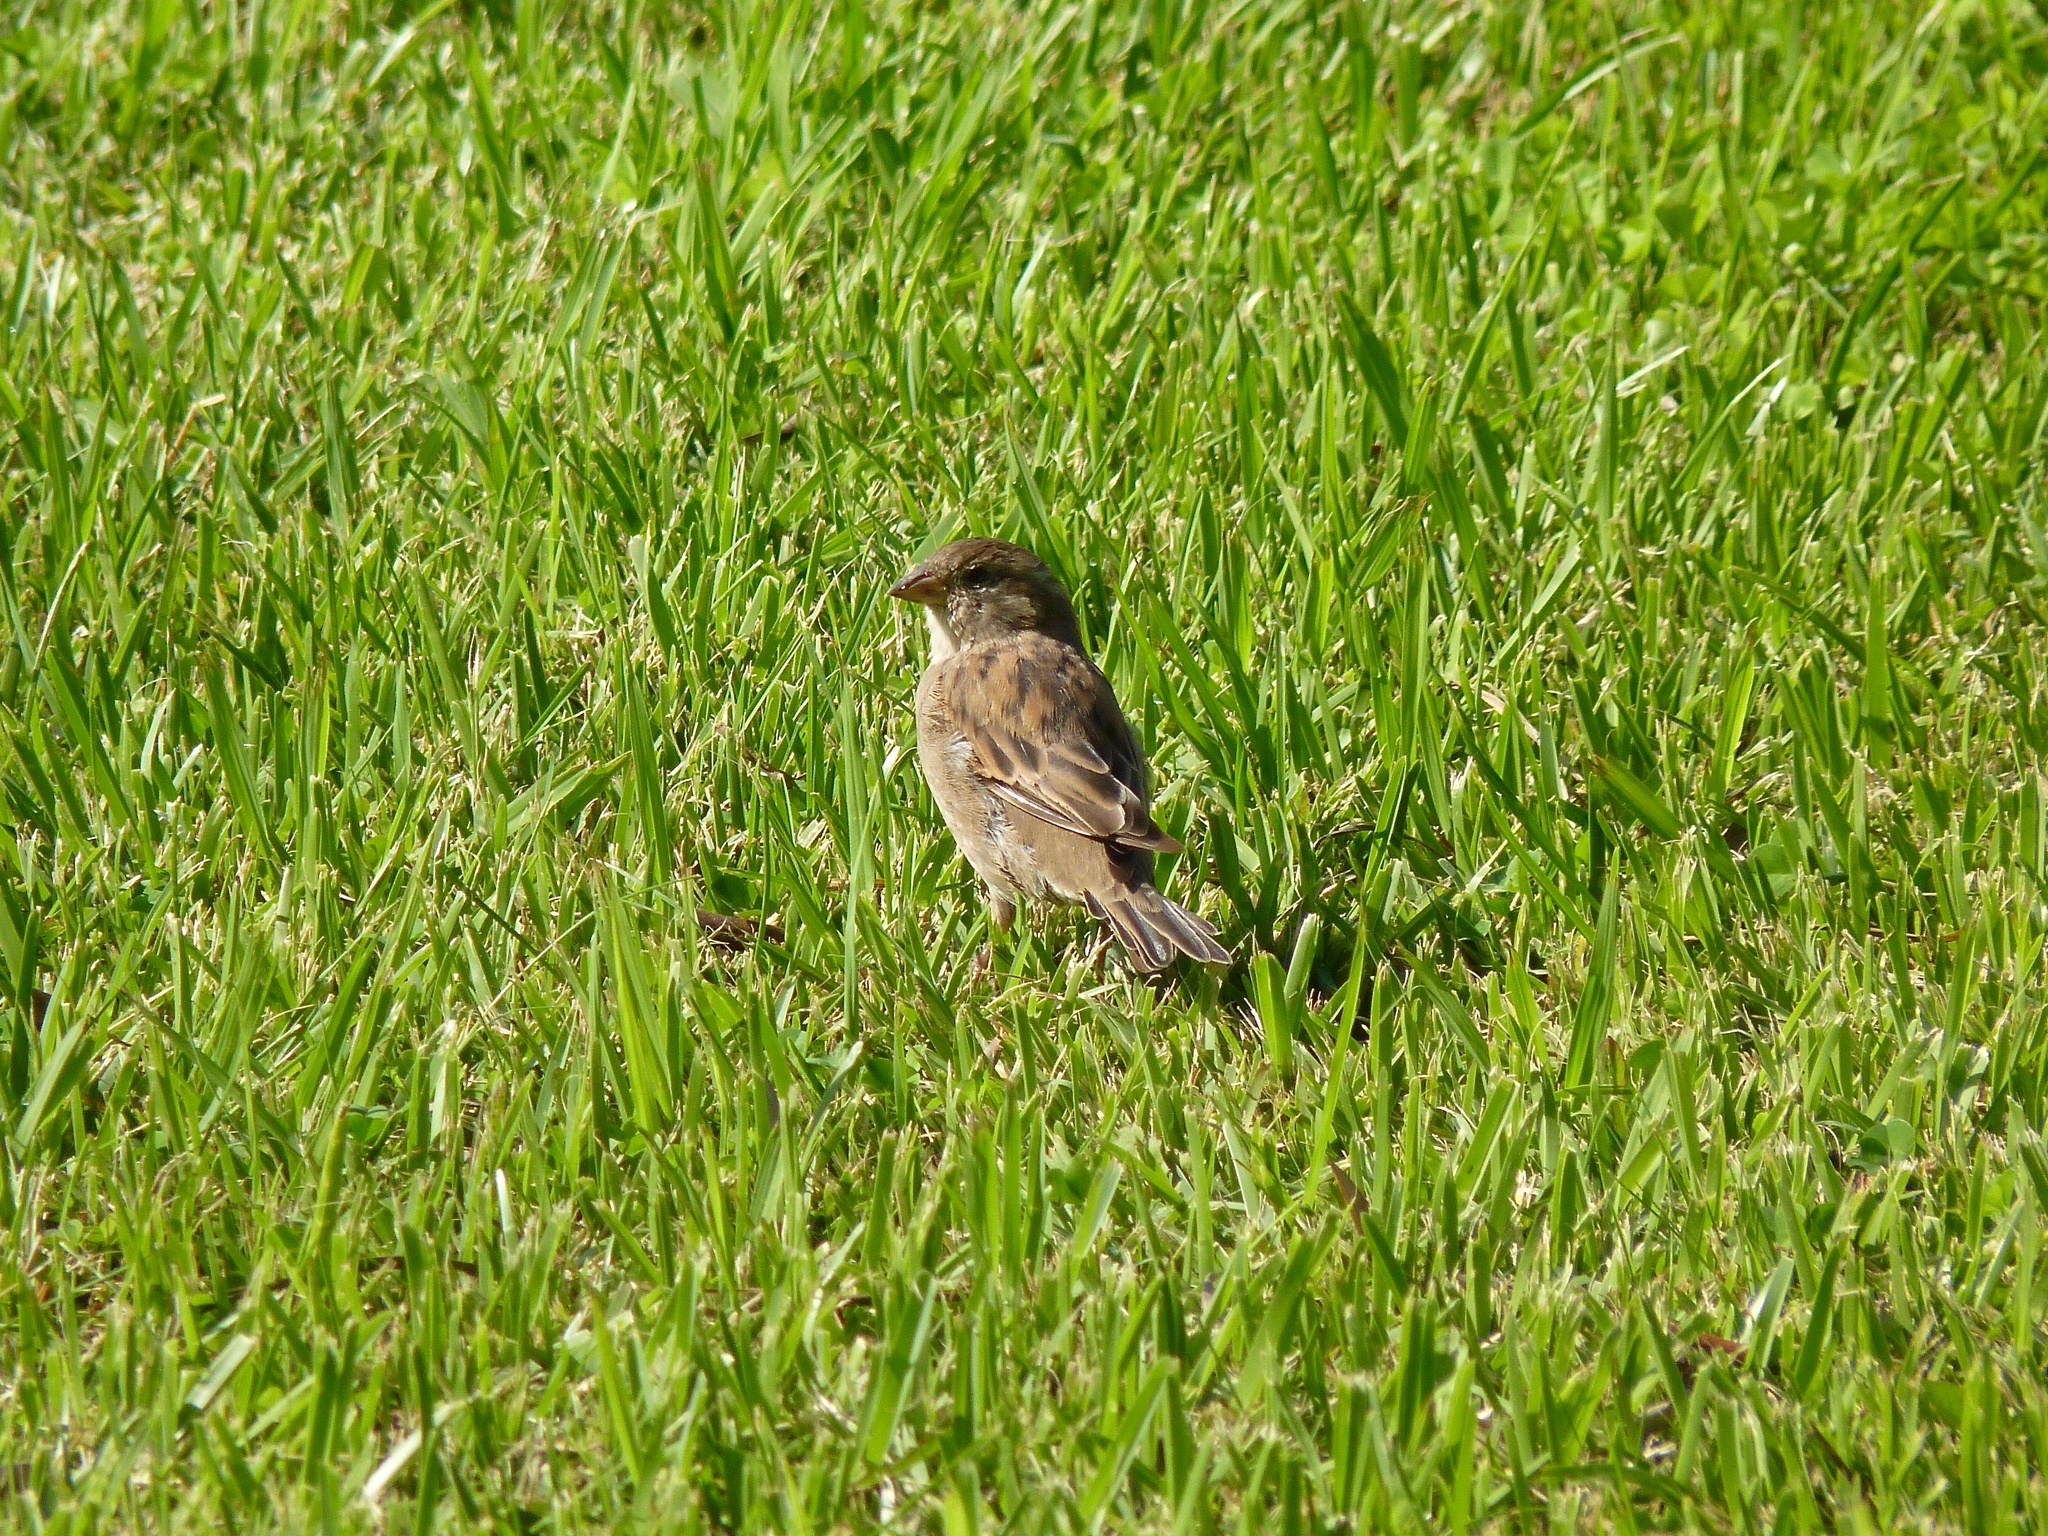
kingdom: Animalia
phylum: Chordata
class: Aves
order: Passeriformes
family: Passeridae
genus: Passer
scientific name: Passer domesticus
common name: House sparrow
